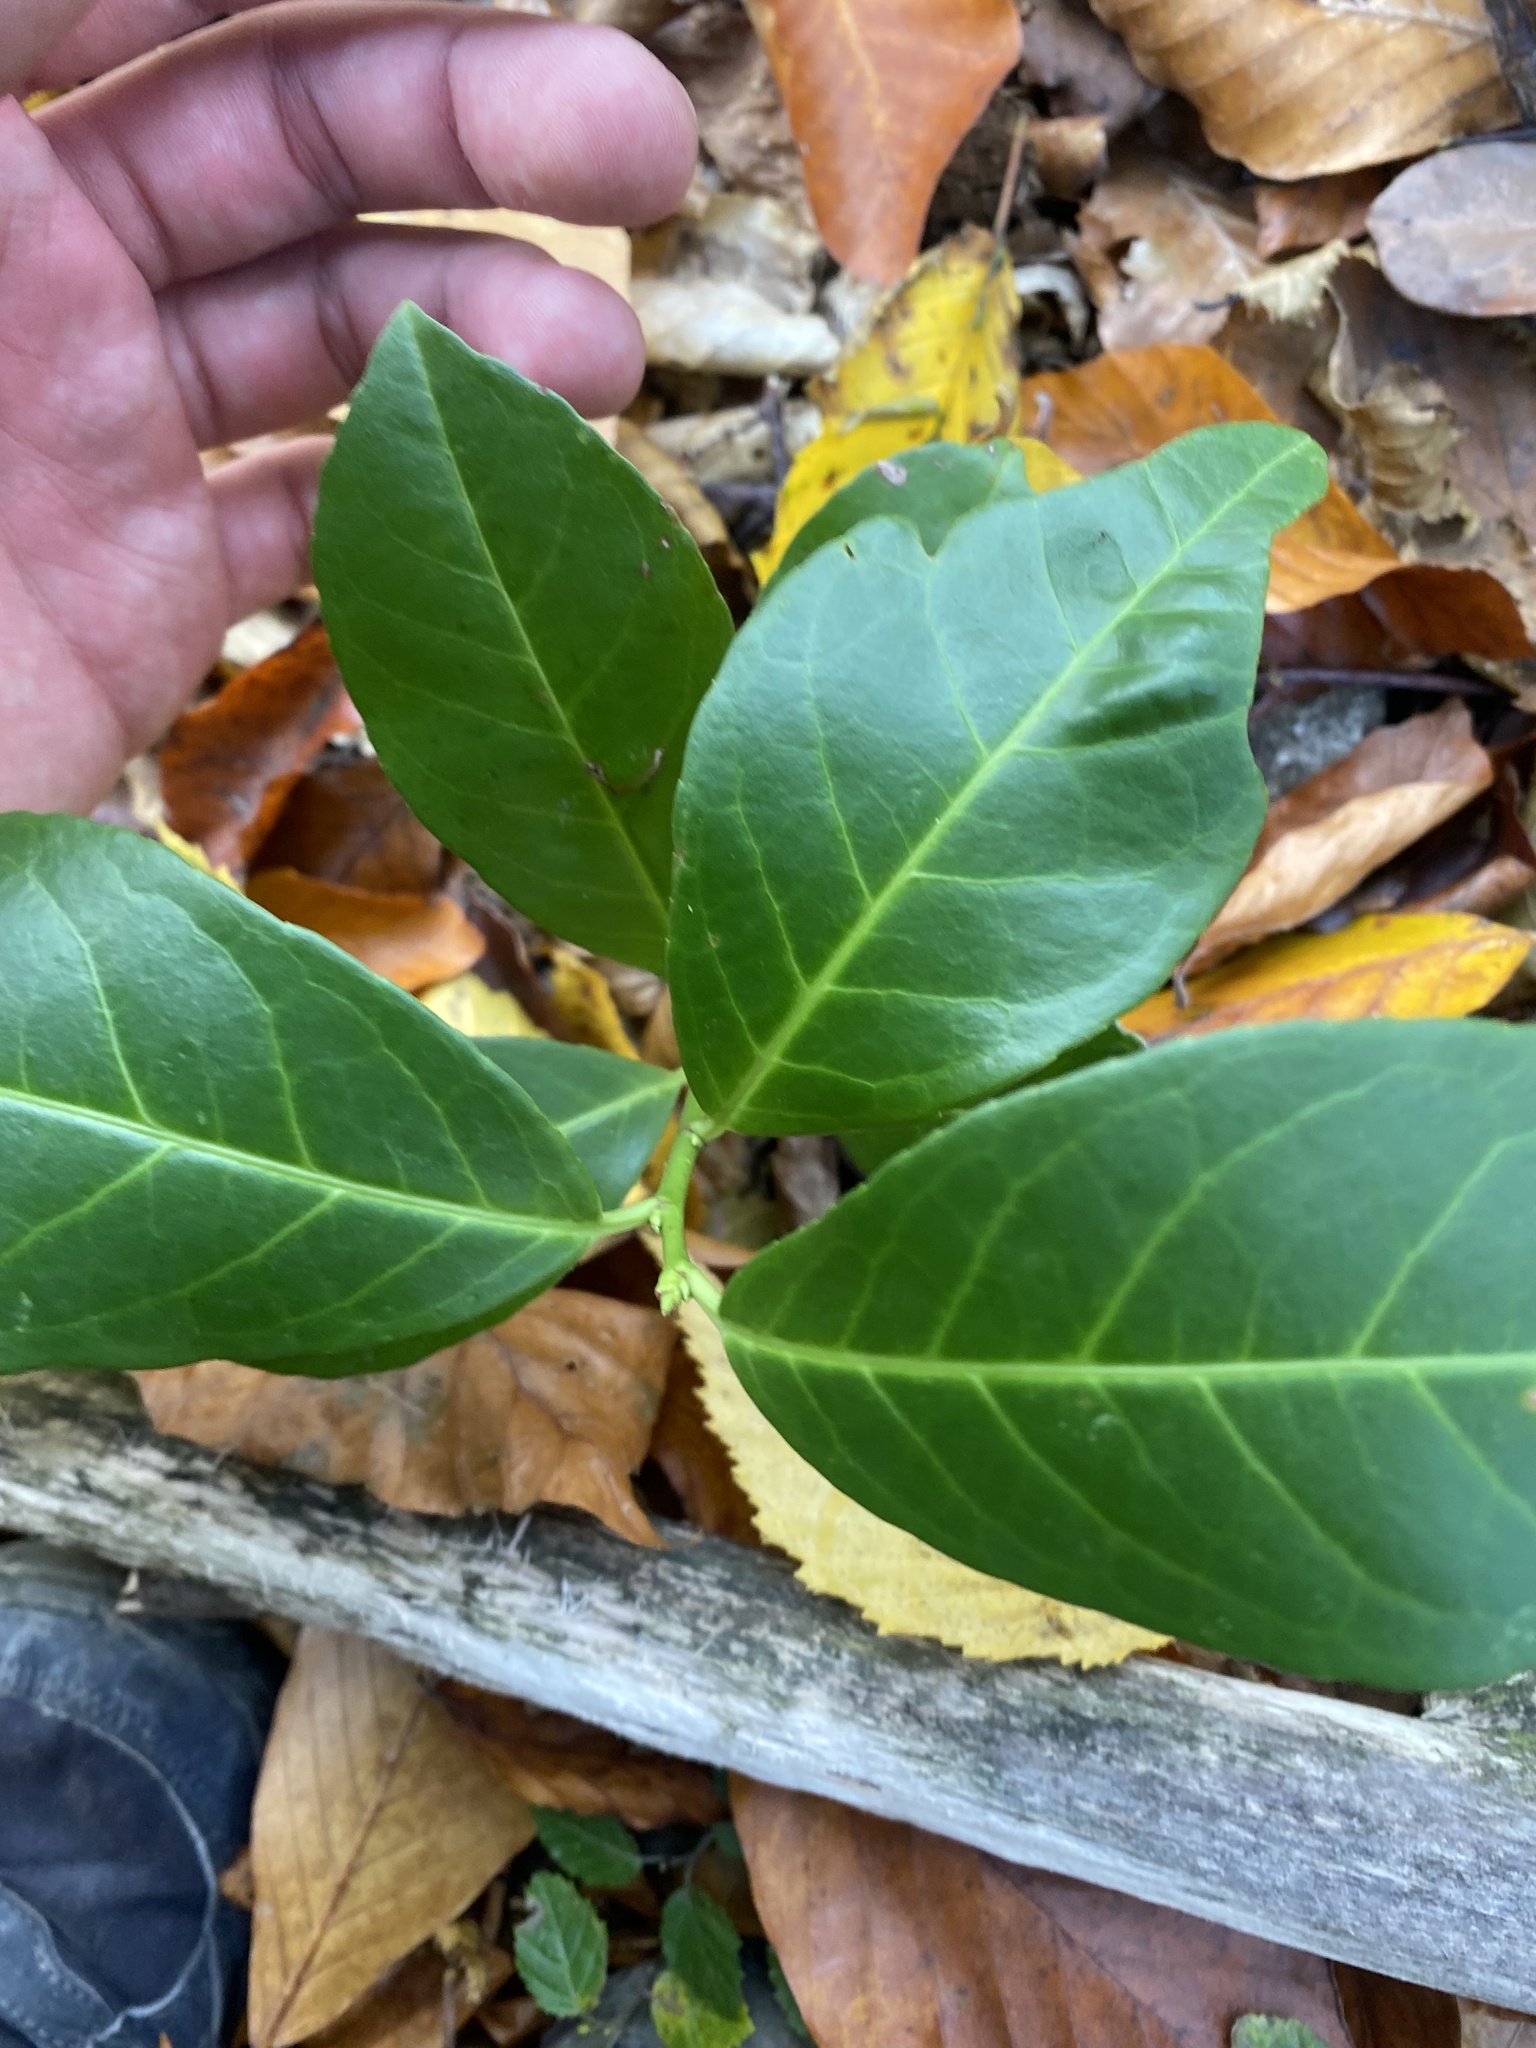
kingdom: Plantae
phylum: Tracheophyta
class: Magnoliopsida
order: Rosales
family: Rosaceae
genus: Prunus
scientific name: Prunus laurocerasus
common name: Cherry laurel
